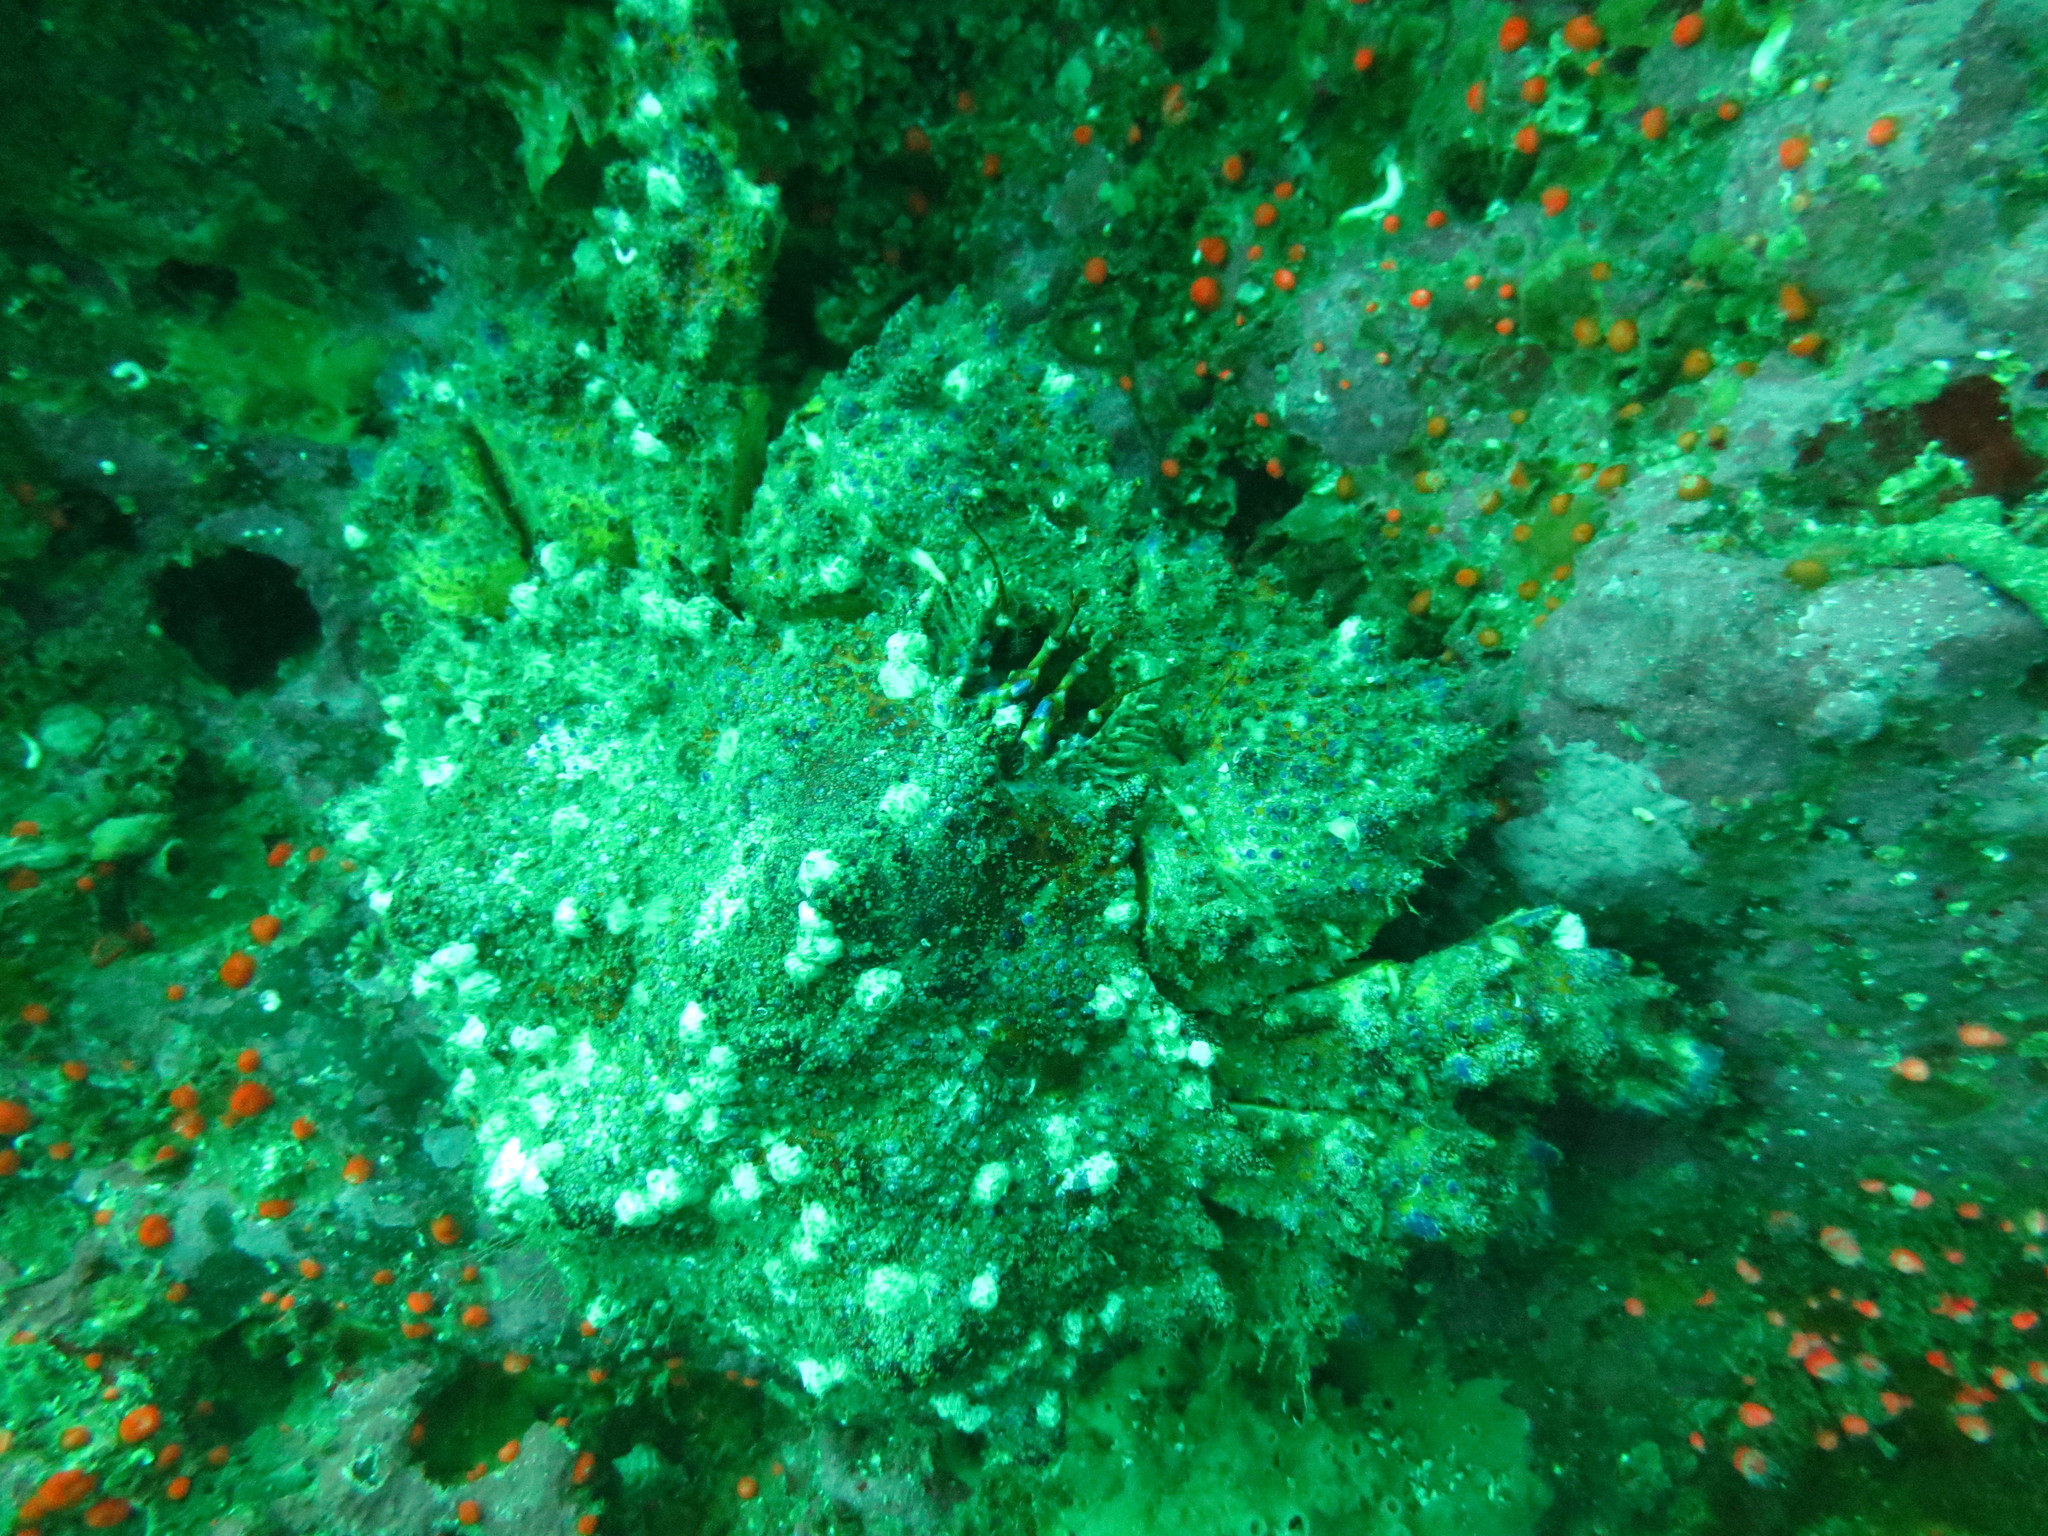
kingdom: Animalia
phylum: Arthropoda
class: Malacostraca
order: Decapoda
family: Lithodidae
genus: Echidnocerus
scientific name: Echidnocerus cibarius
